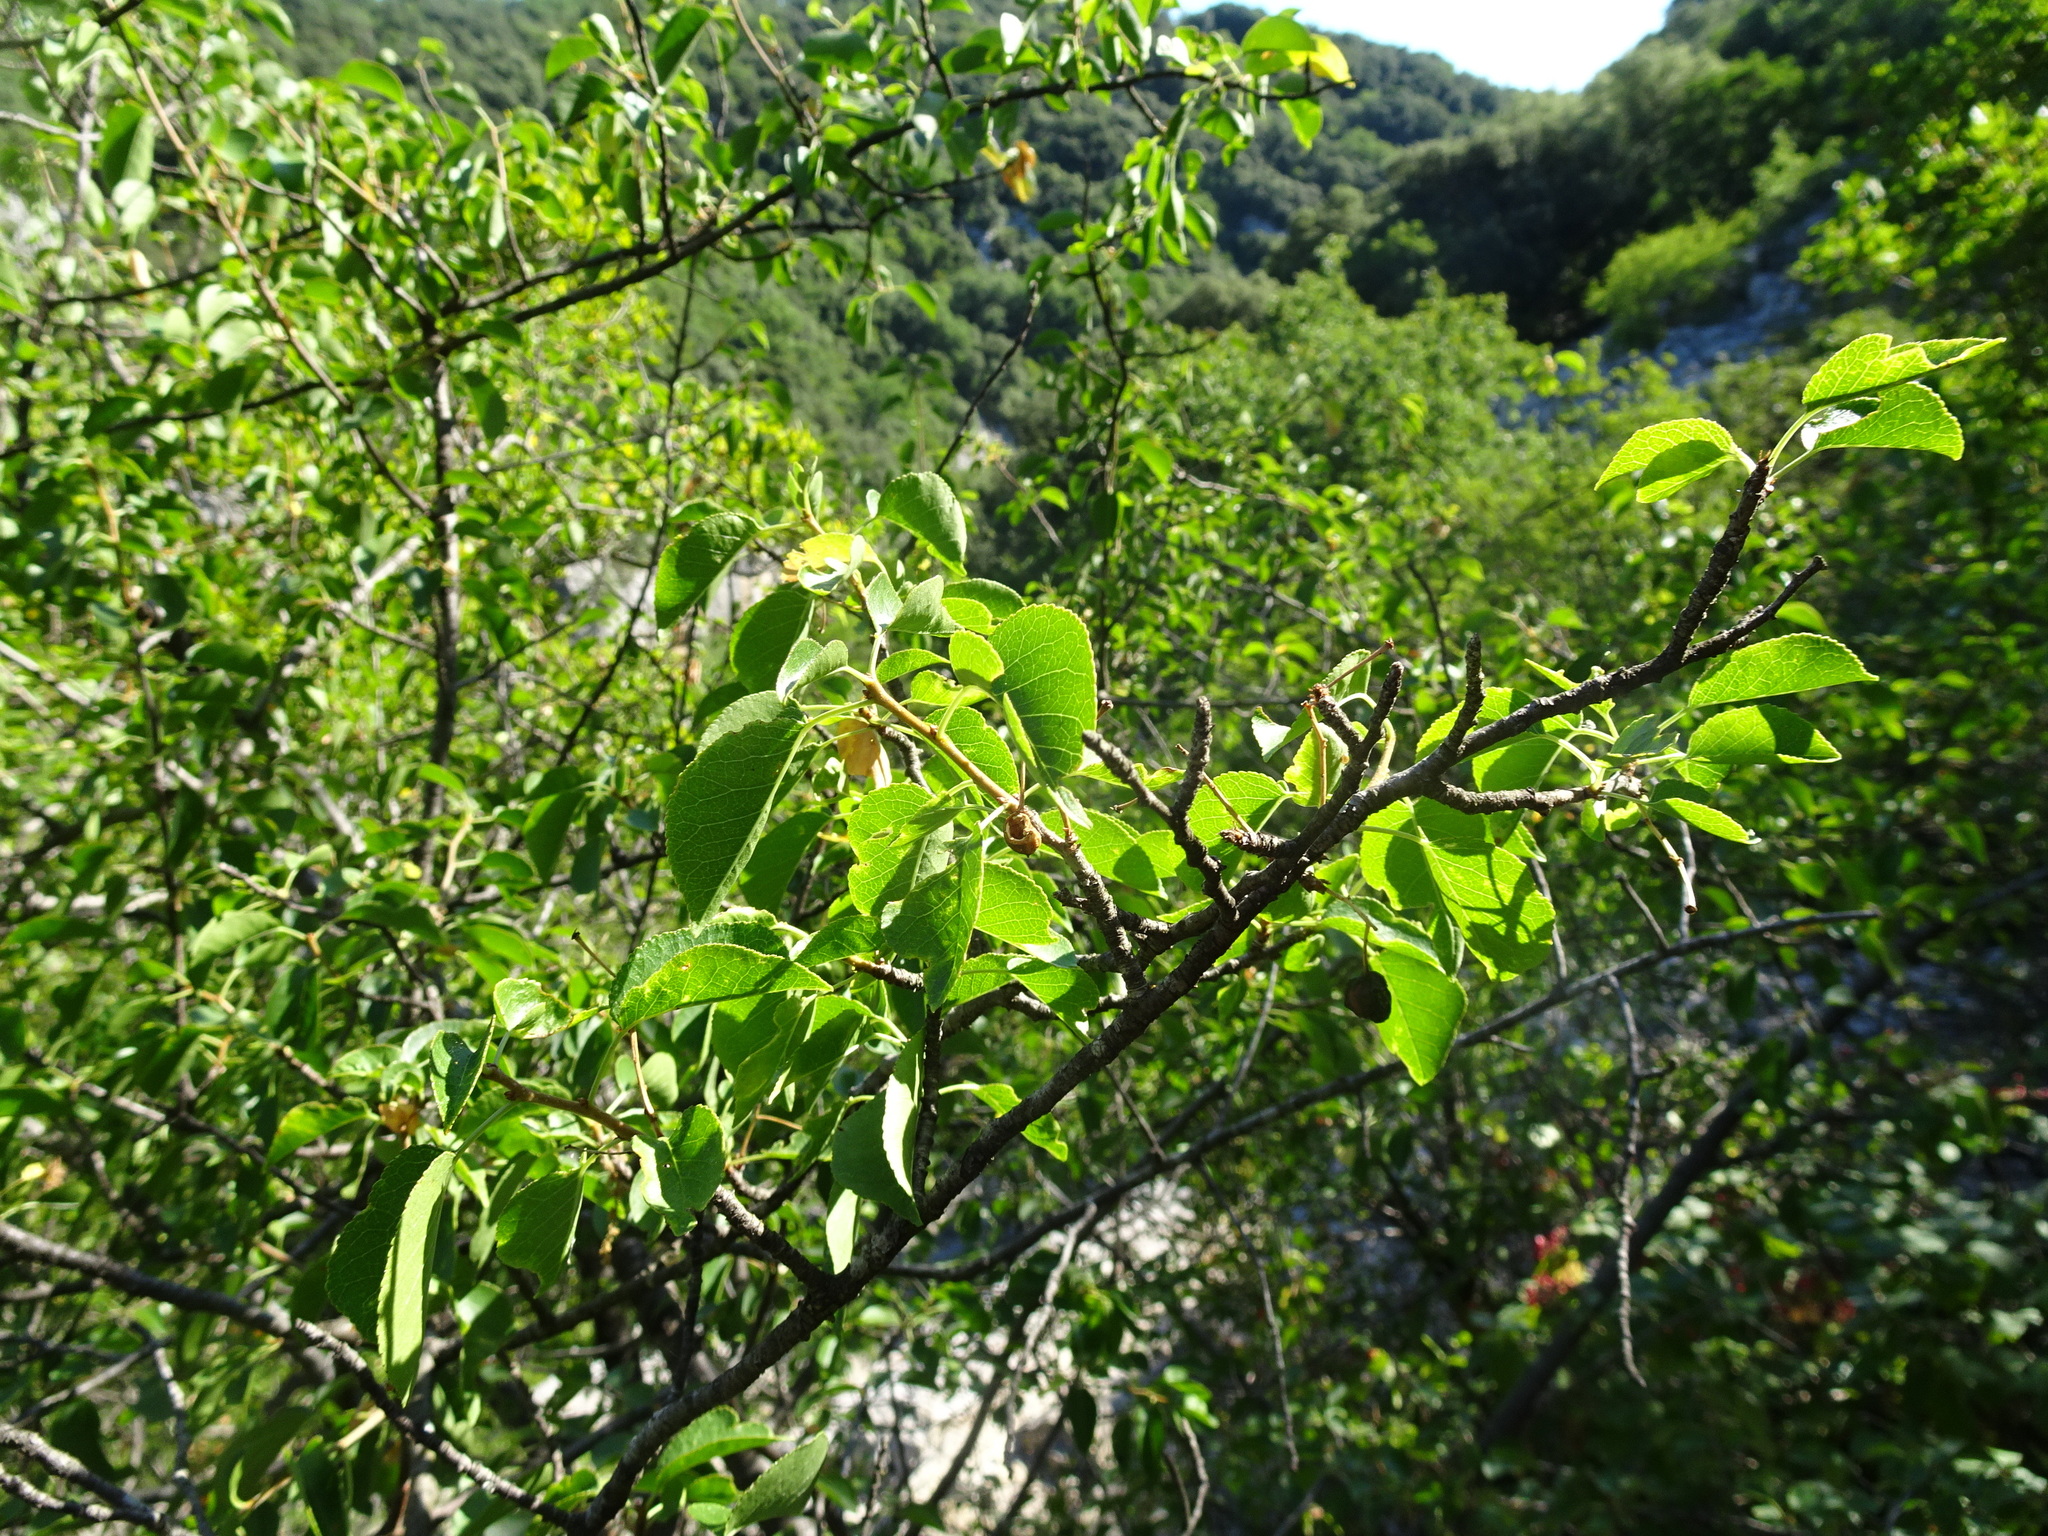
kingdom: Plantae
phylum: Tracheophyta
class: Magnoliopsida
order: Rosales
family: Rosaceae
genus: Prunus
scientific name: Prunus mahaleb
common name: Mahaleb cherry
